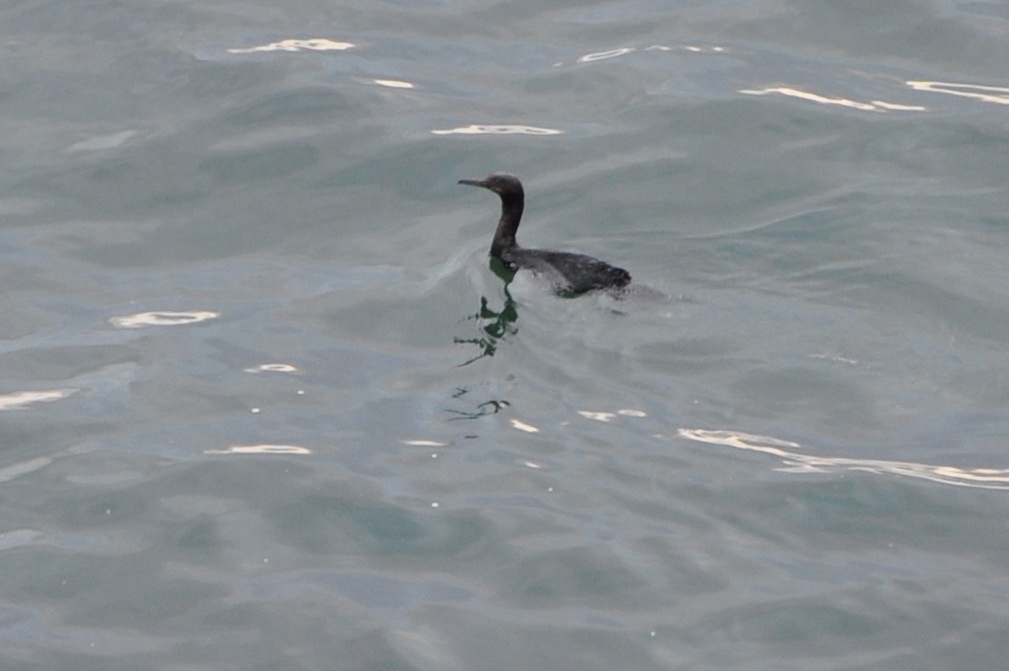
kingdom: Animalia
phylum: Chordata
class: Aves
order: Suliformes
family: Phalacrocoracidae
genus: Urile
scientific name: Urile penicillatus
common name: Brandt's cormorant
